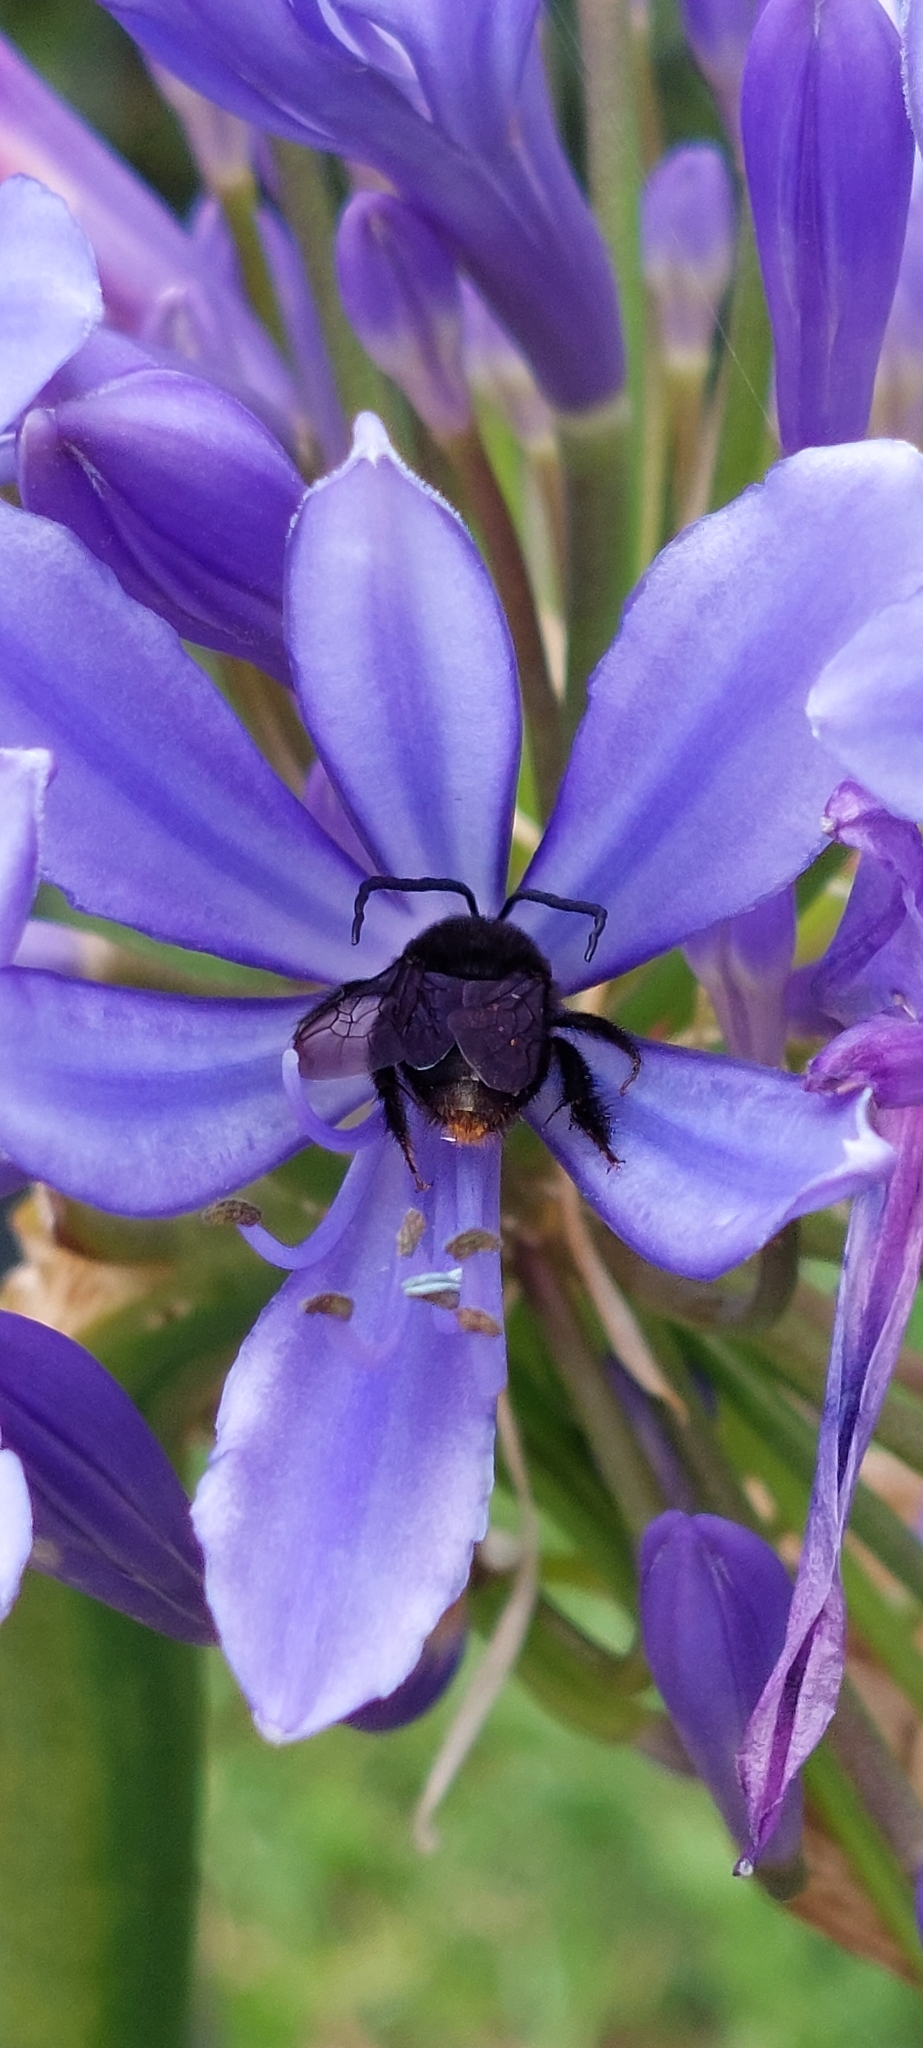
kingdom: Animalia
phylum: Arthropoda
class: Insecta
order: Hymenoptera
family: Apidae
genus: Thygater
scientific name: Thygater aethiops
